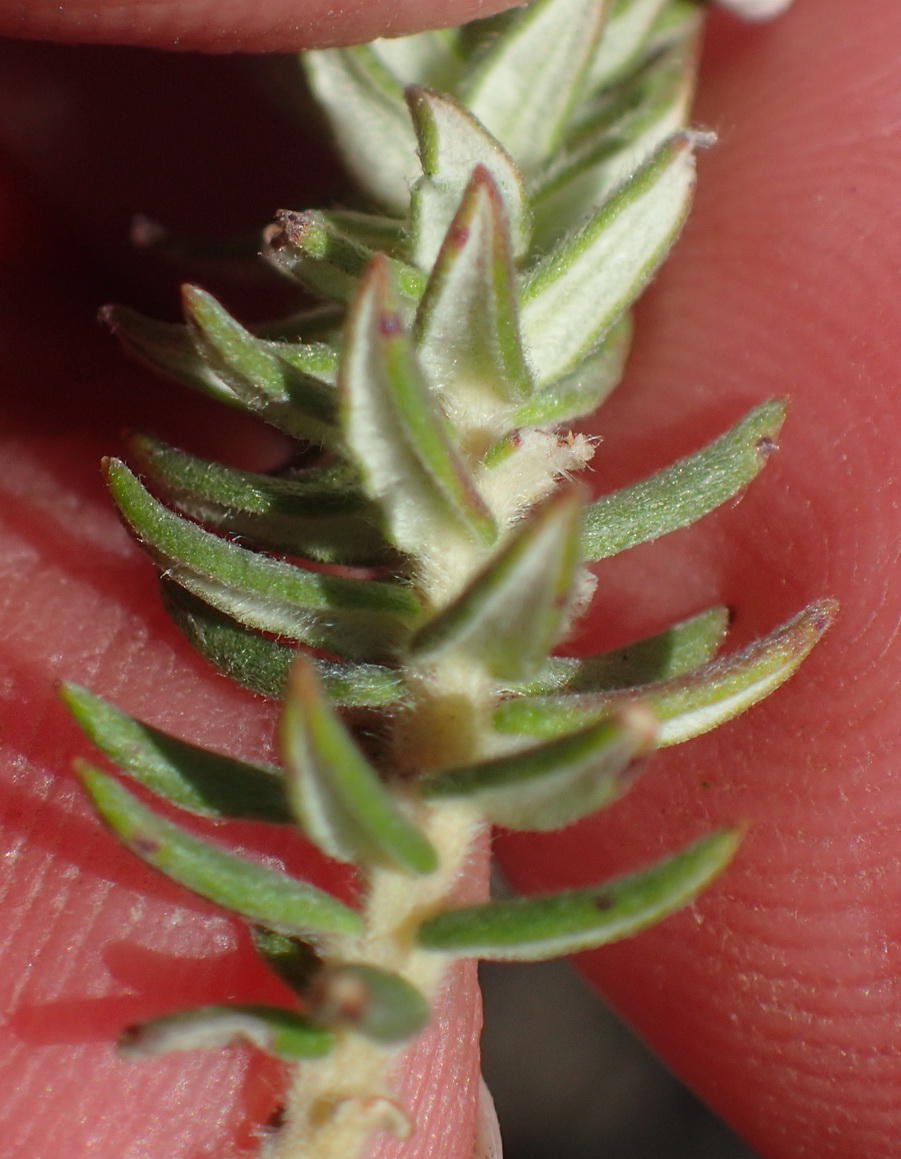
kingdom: Plantae
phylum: Tracheophyta
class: Magnoliopsida
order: Rosales
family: Rhamnaceae
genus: Phylica
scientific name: Phylica pinea
